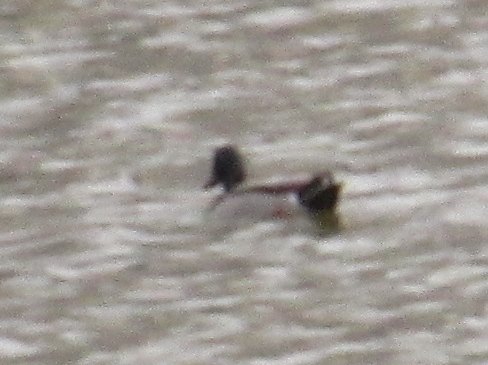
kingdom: Animalia
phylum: Chordata
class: Aves
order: Anseriformes
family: Anatidae
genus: Anas
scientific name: Anas platyrhynchos
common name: Mallard
